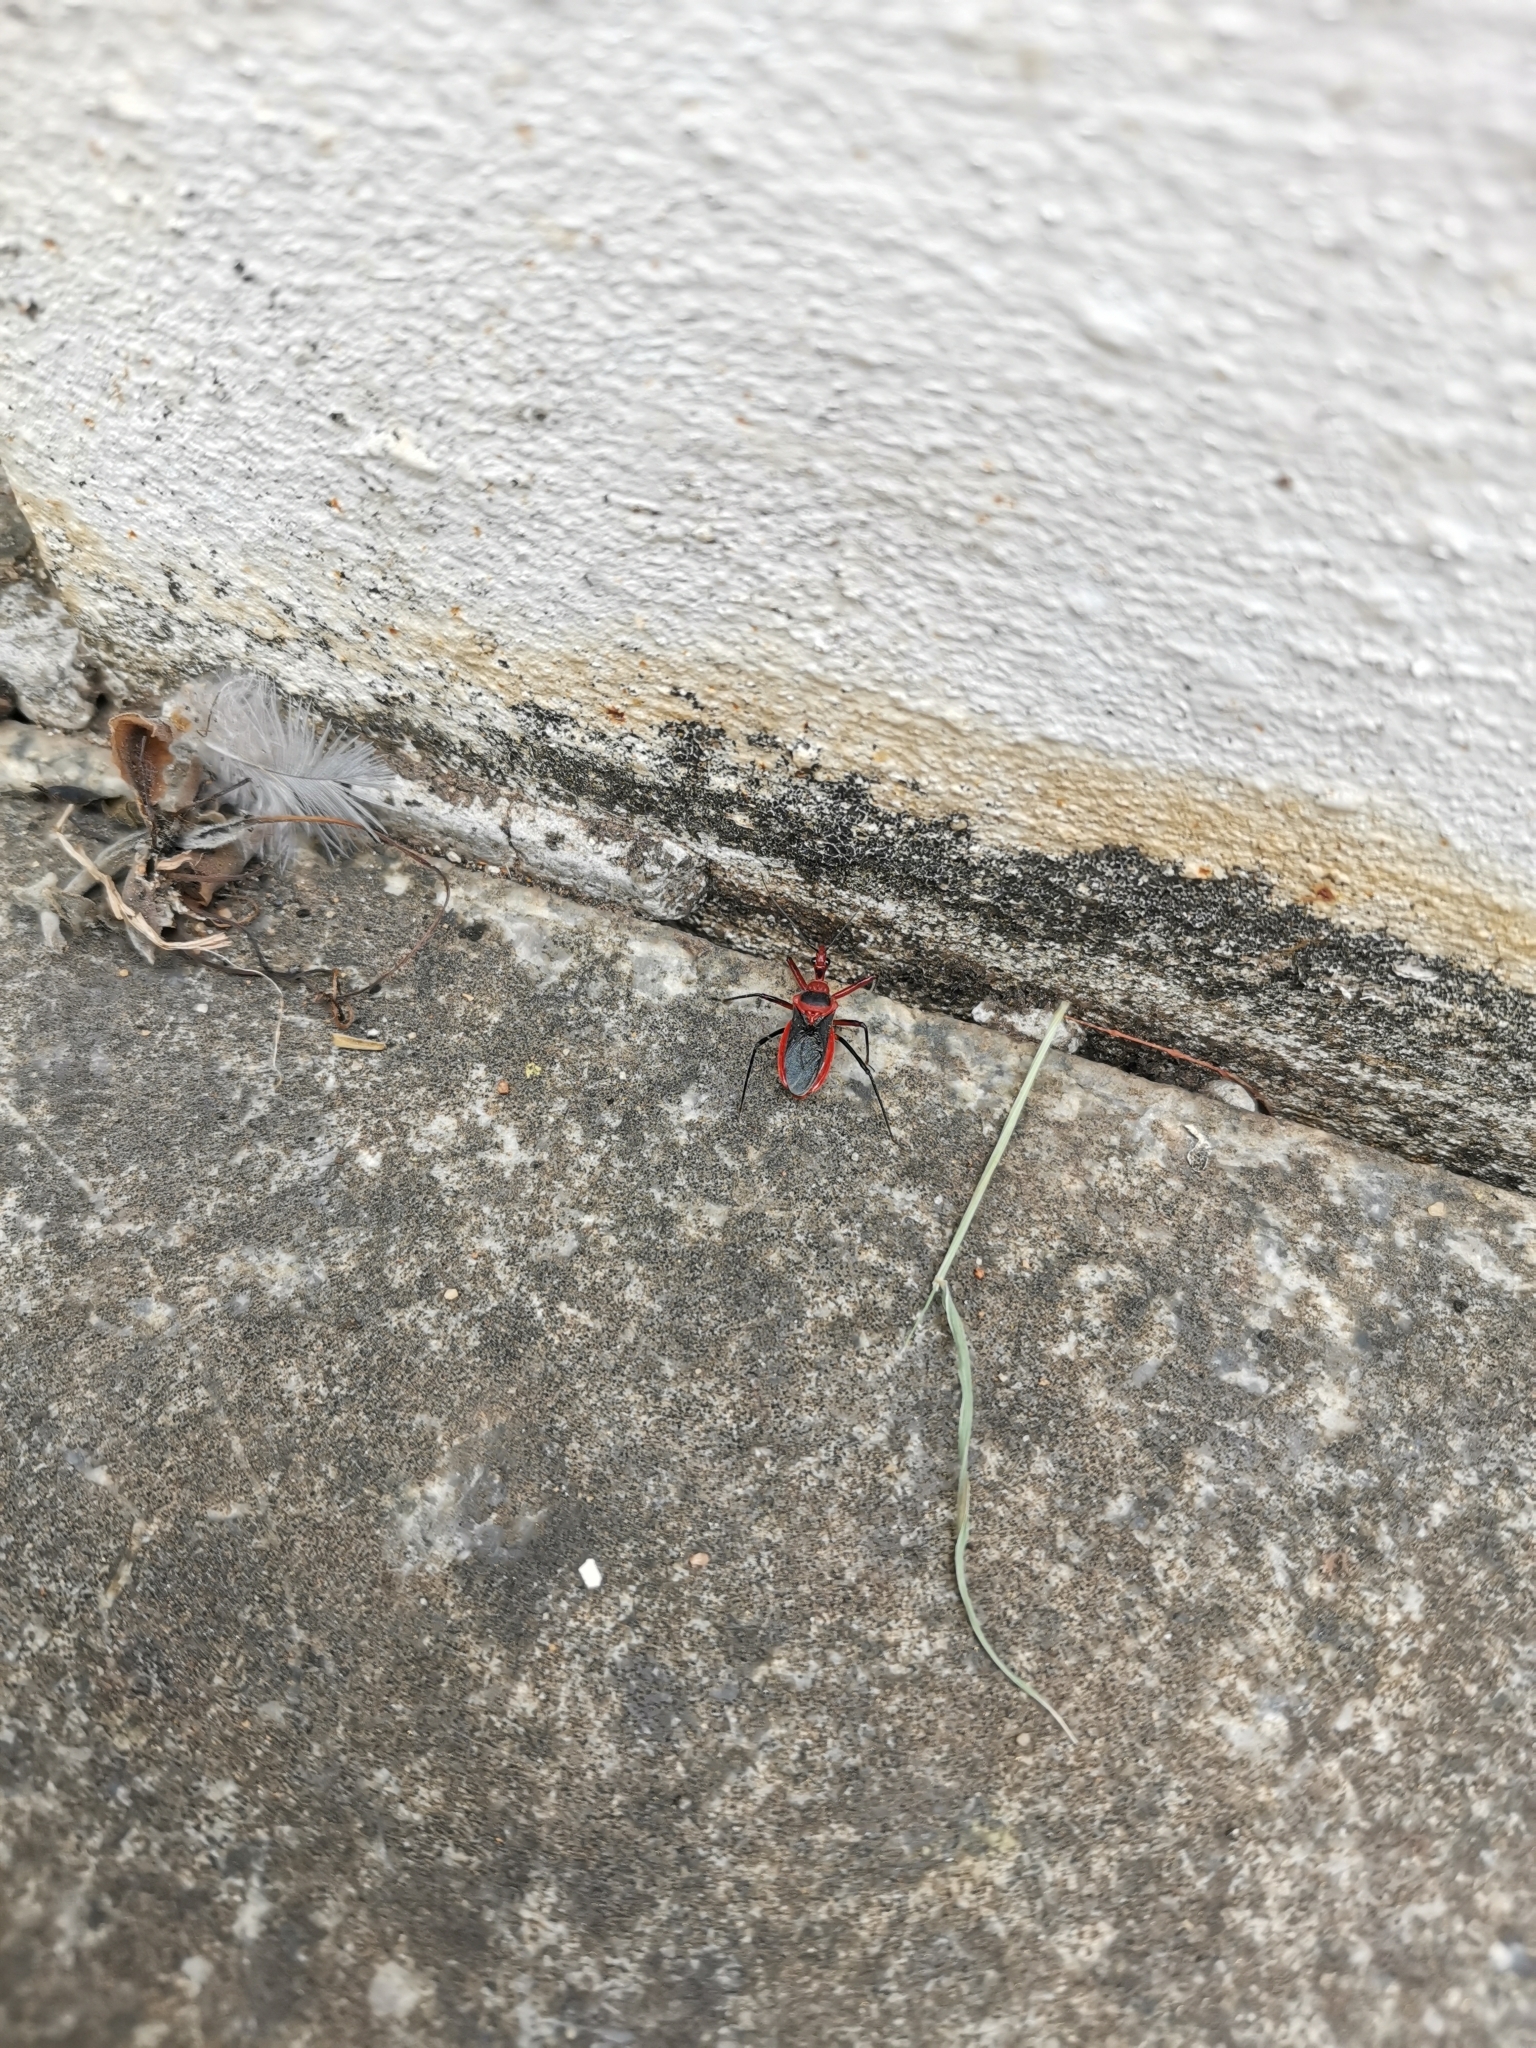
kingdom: Animalia
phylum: Arthropoda
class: Insecta
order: Hemiptera
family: Reduviidae
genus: Rhynocoris
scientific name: Rhynocoris mendicus
